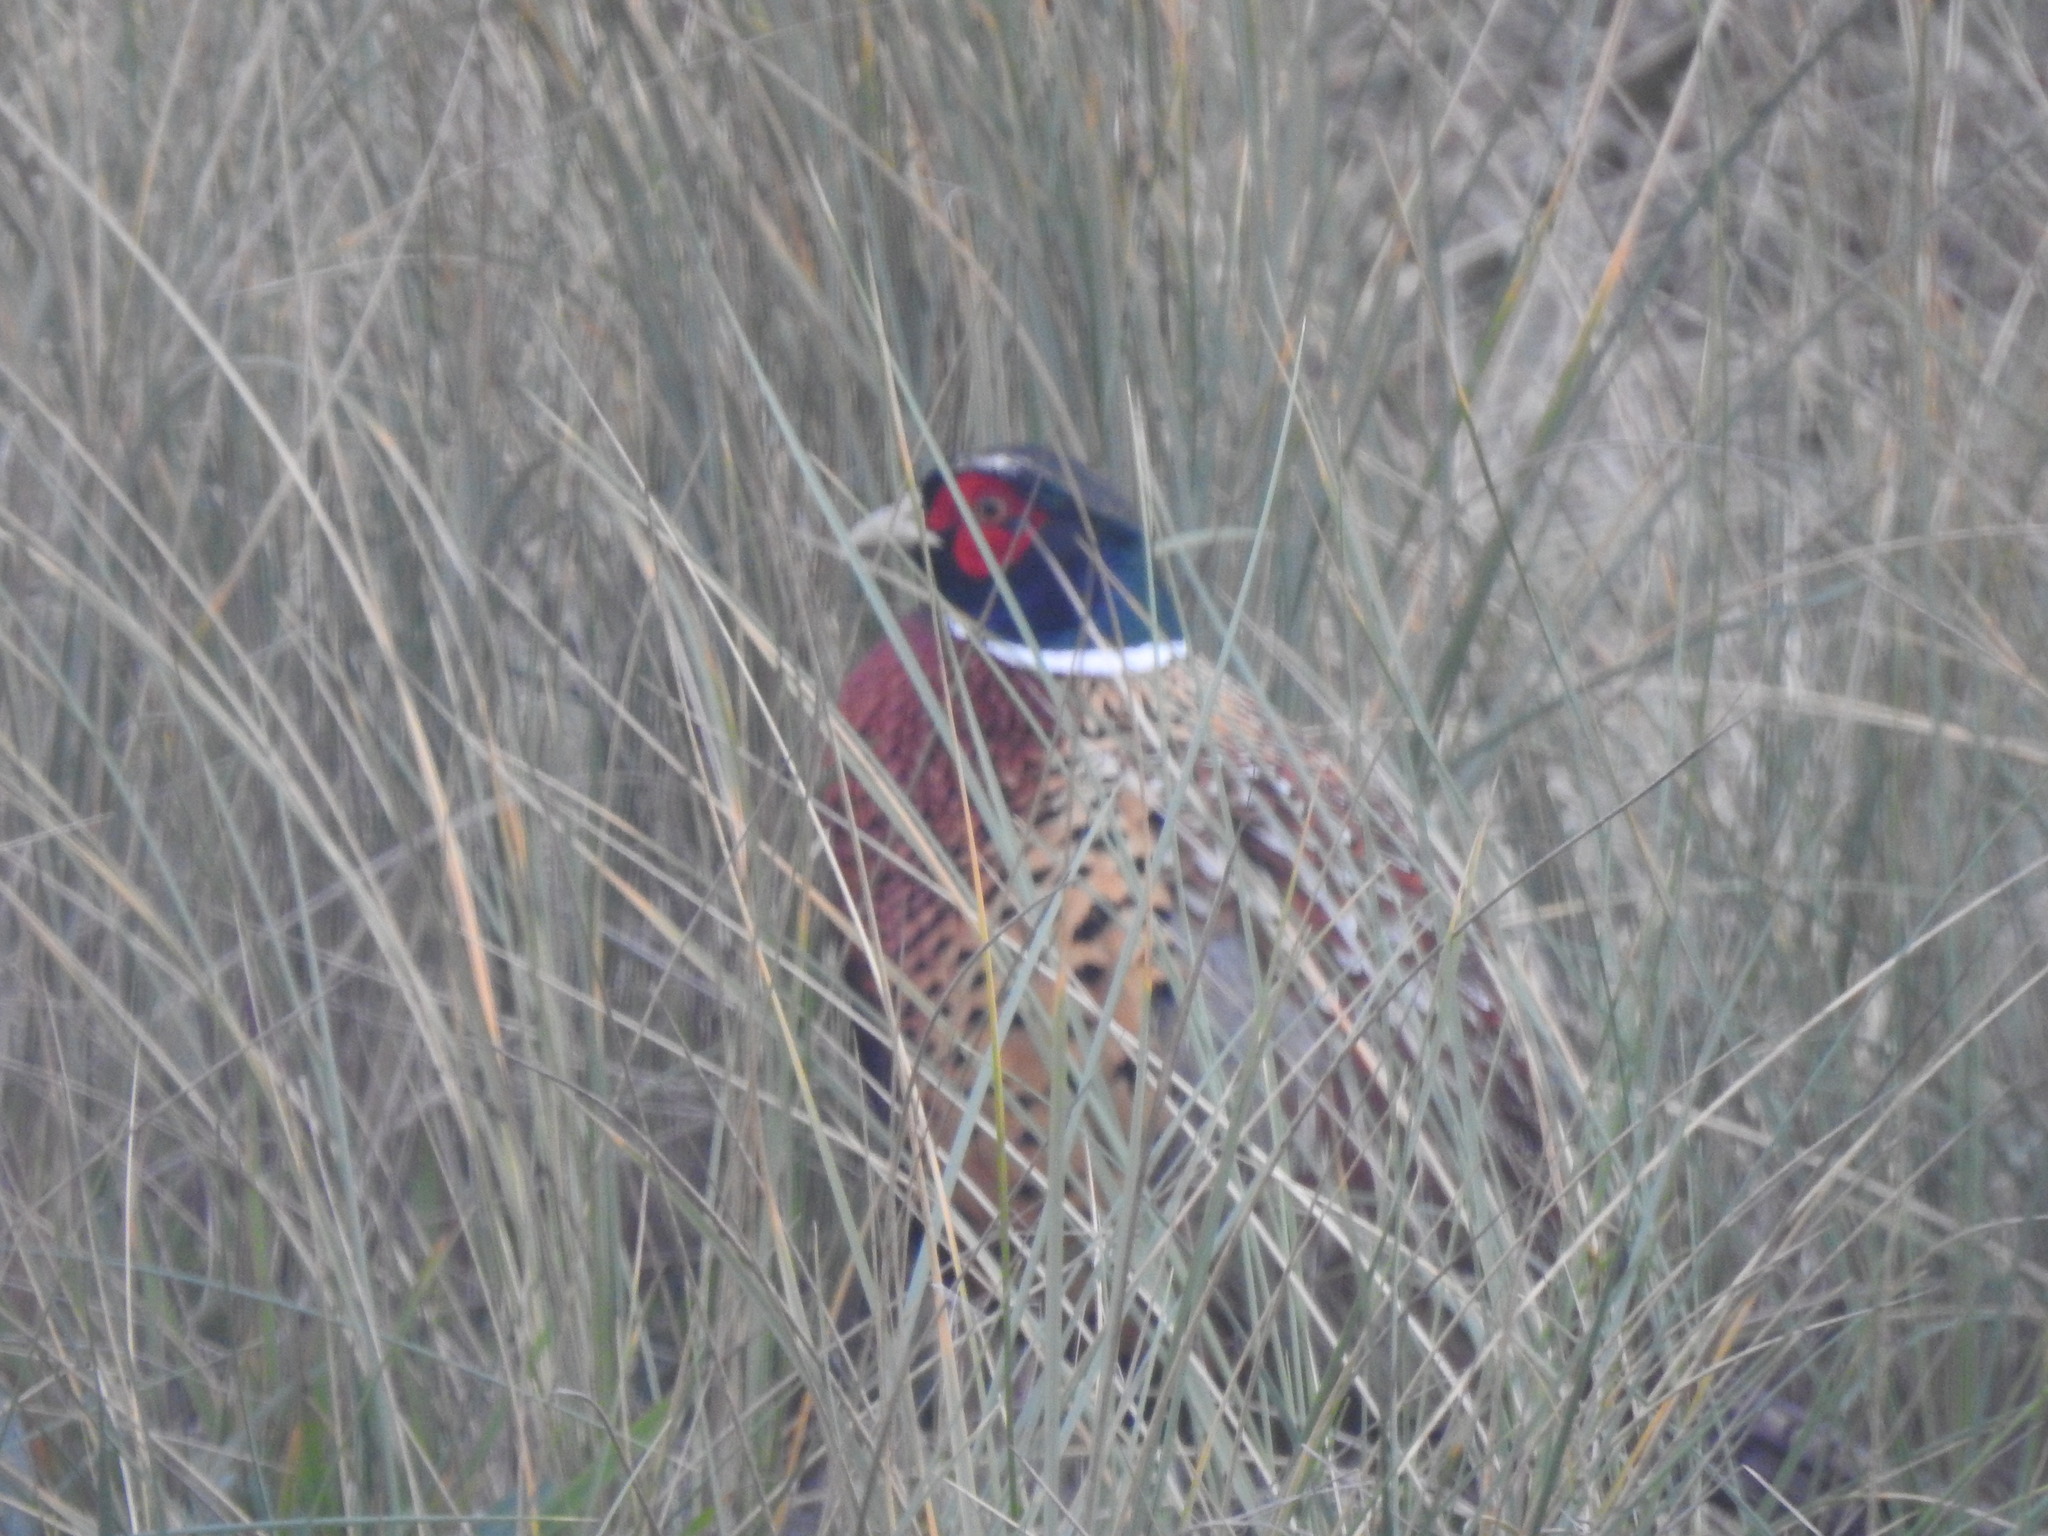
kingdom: Animalia
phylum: Chordata
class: Aves
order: Galliformes
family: Phasianidae
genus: Phasianus
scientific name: Phasianus colchicus
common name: Common pheasant
